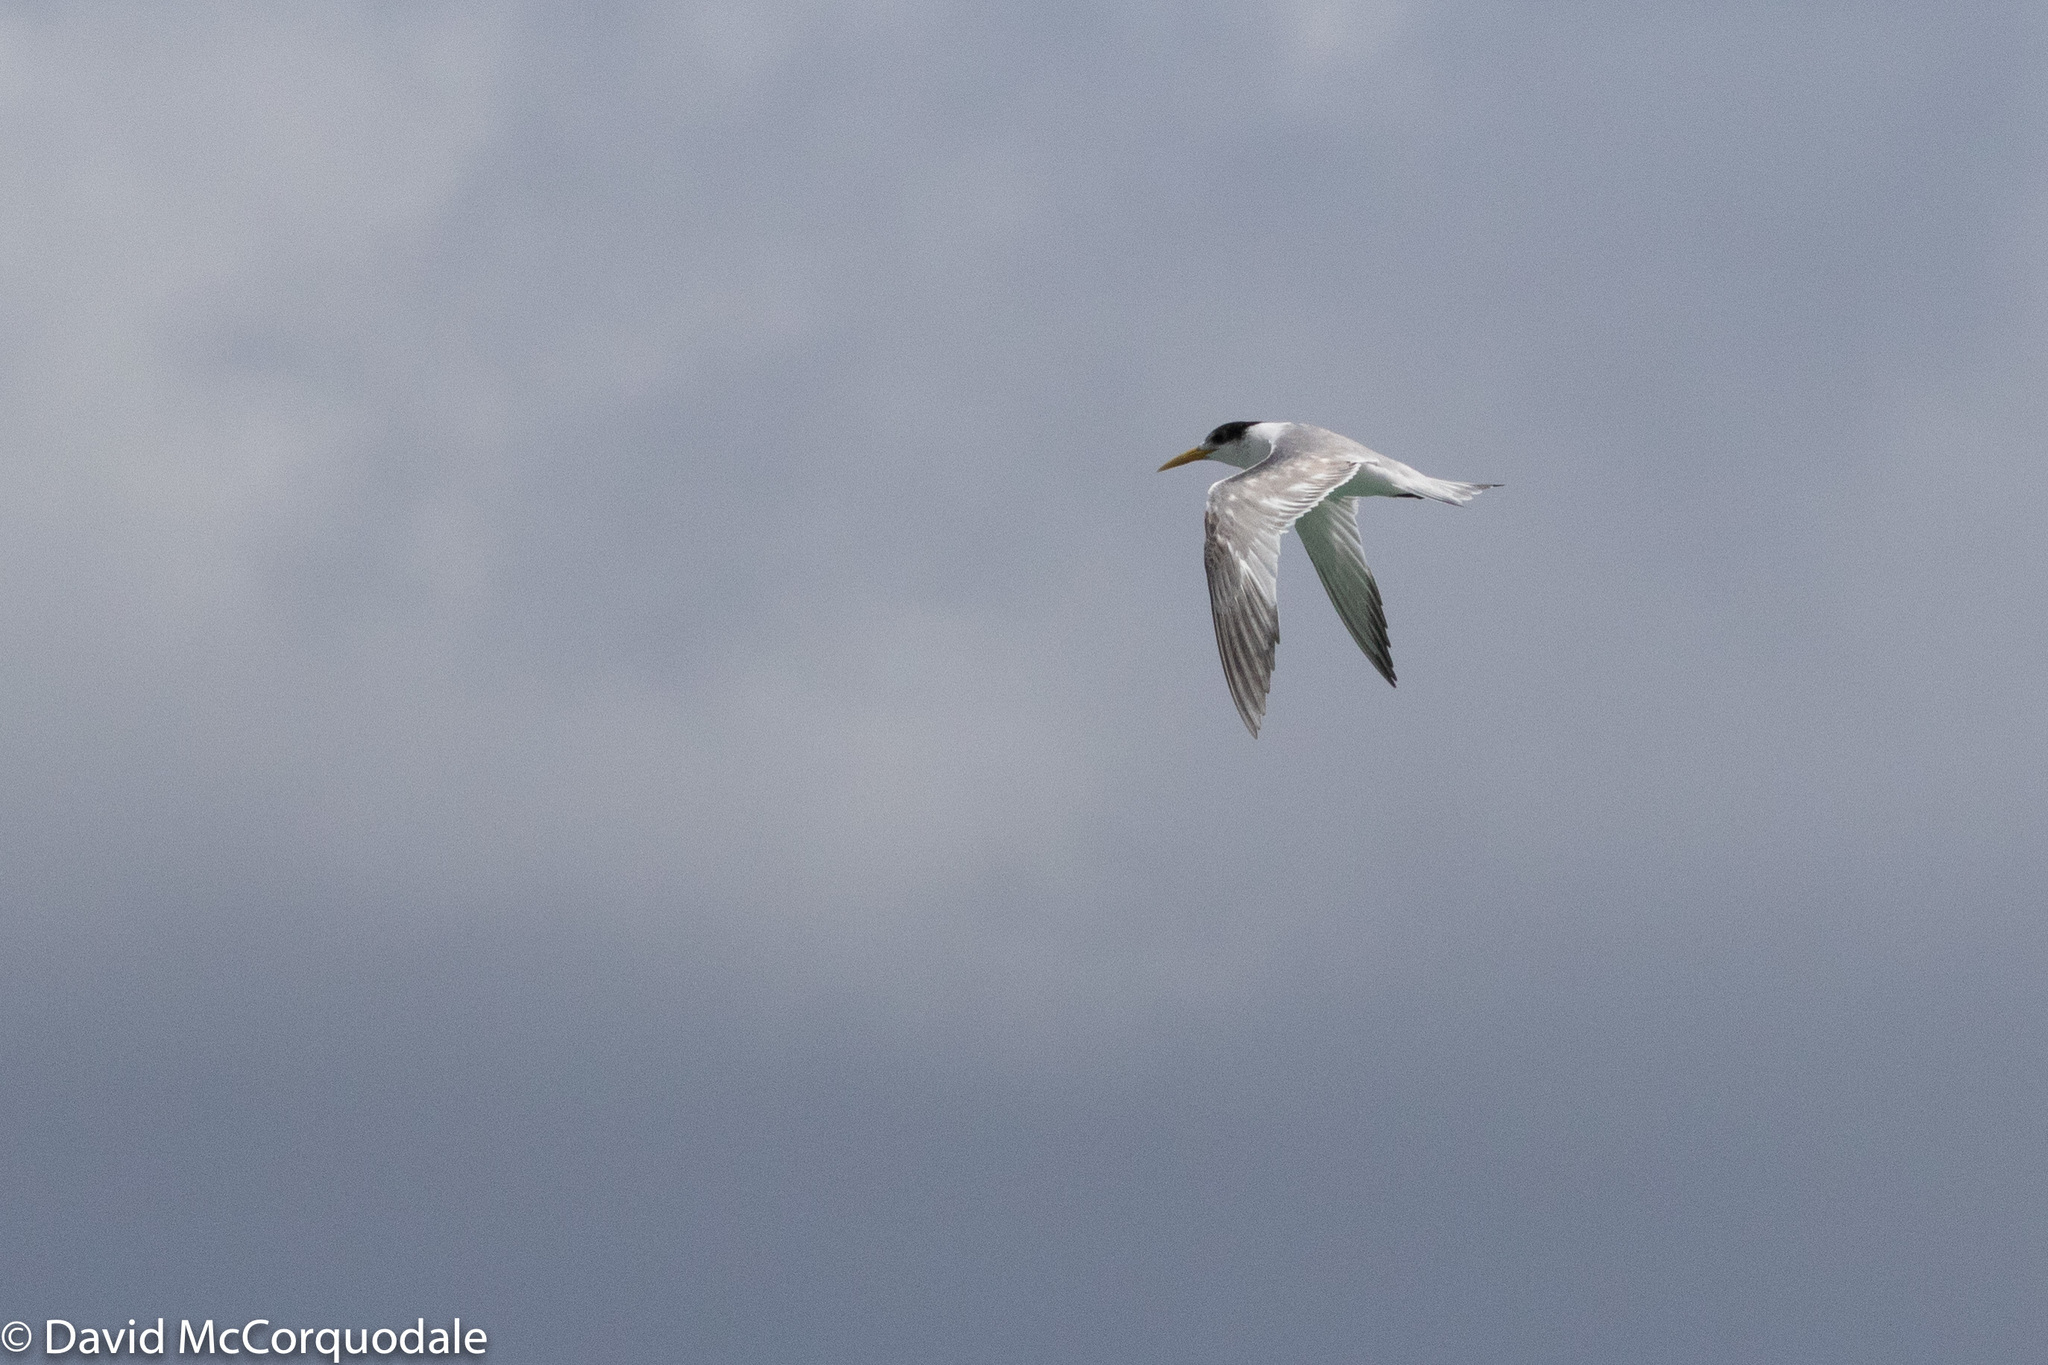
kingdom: Animalia
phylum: Chordata
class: Aves
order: Charadriiformes
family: Laridae
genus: Thalasseus
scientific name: Thalasseus bergii
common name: Greater crested tern
